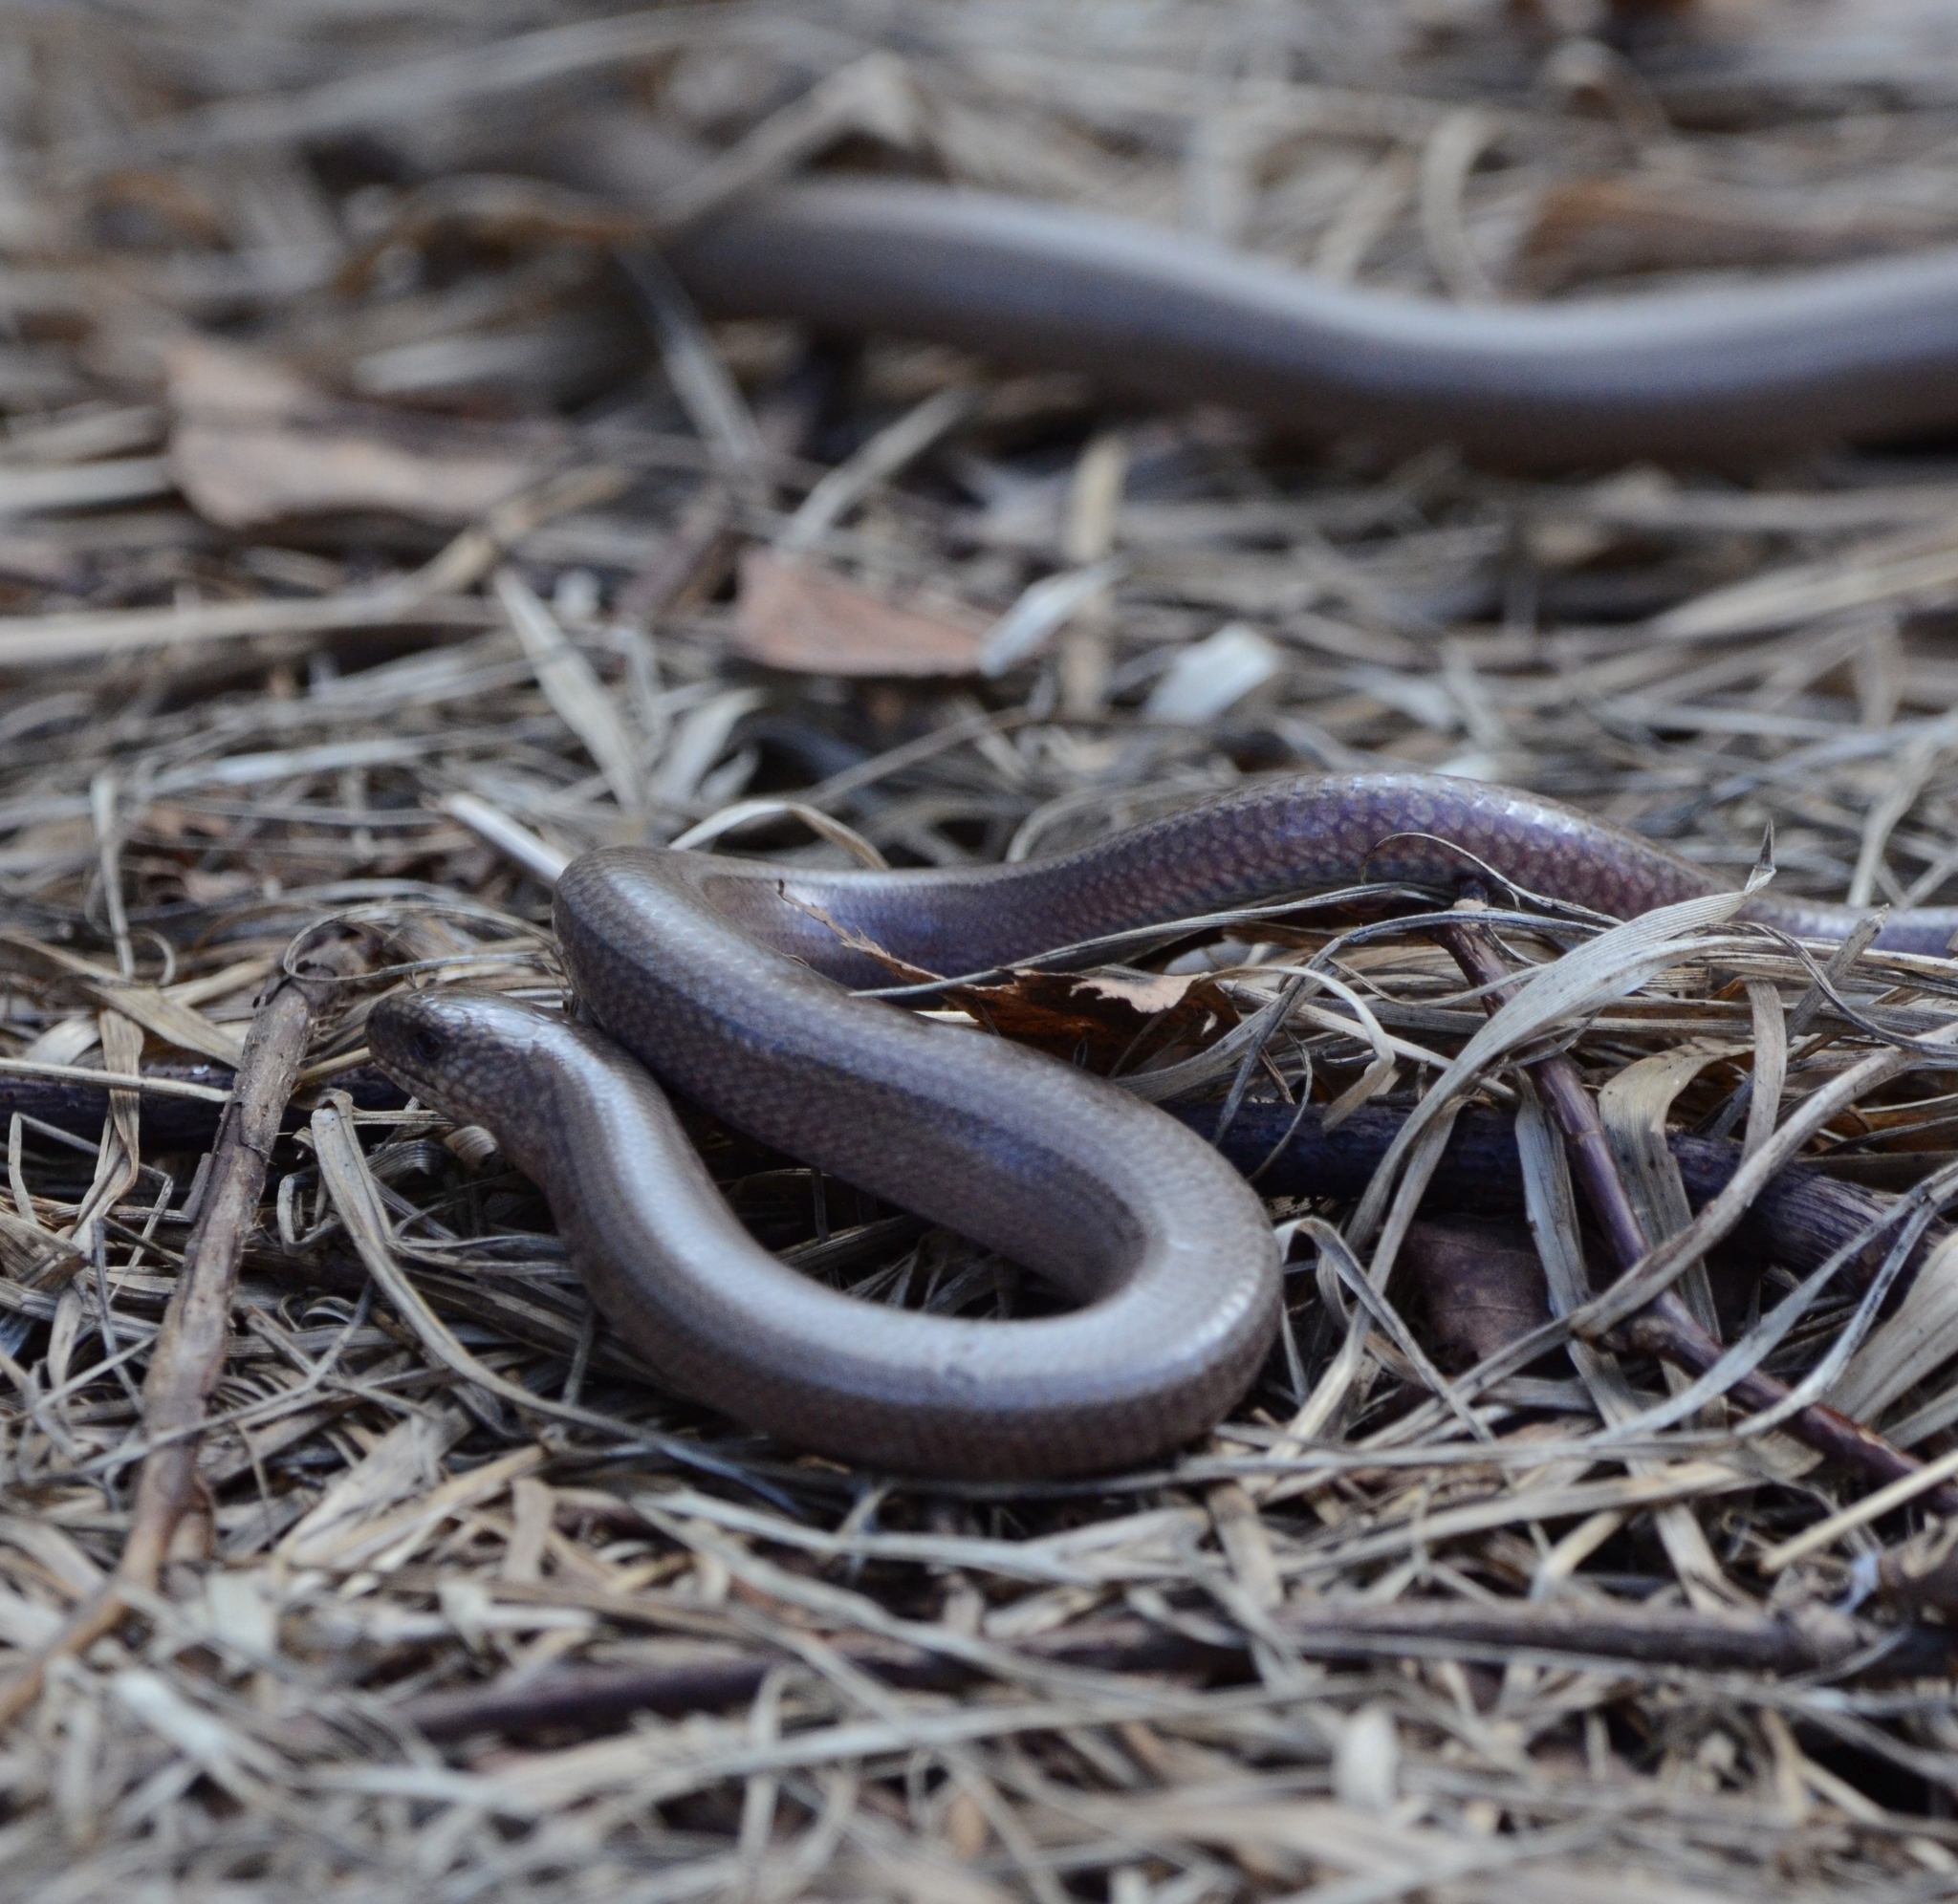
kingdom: Animalia
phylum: Chordata
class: Squamata
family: Anguidae
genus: Anguis
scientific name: Anguis fragilis
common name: Slow worm
